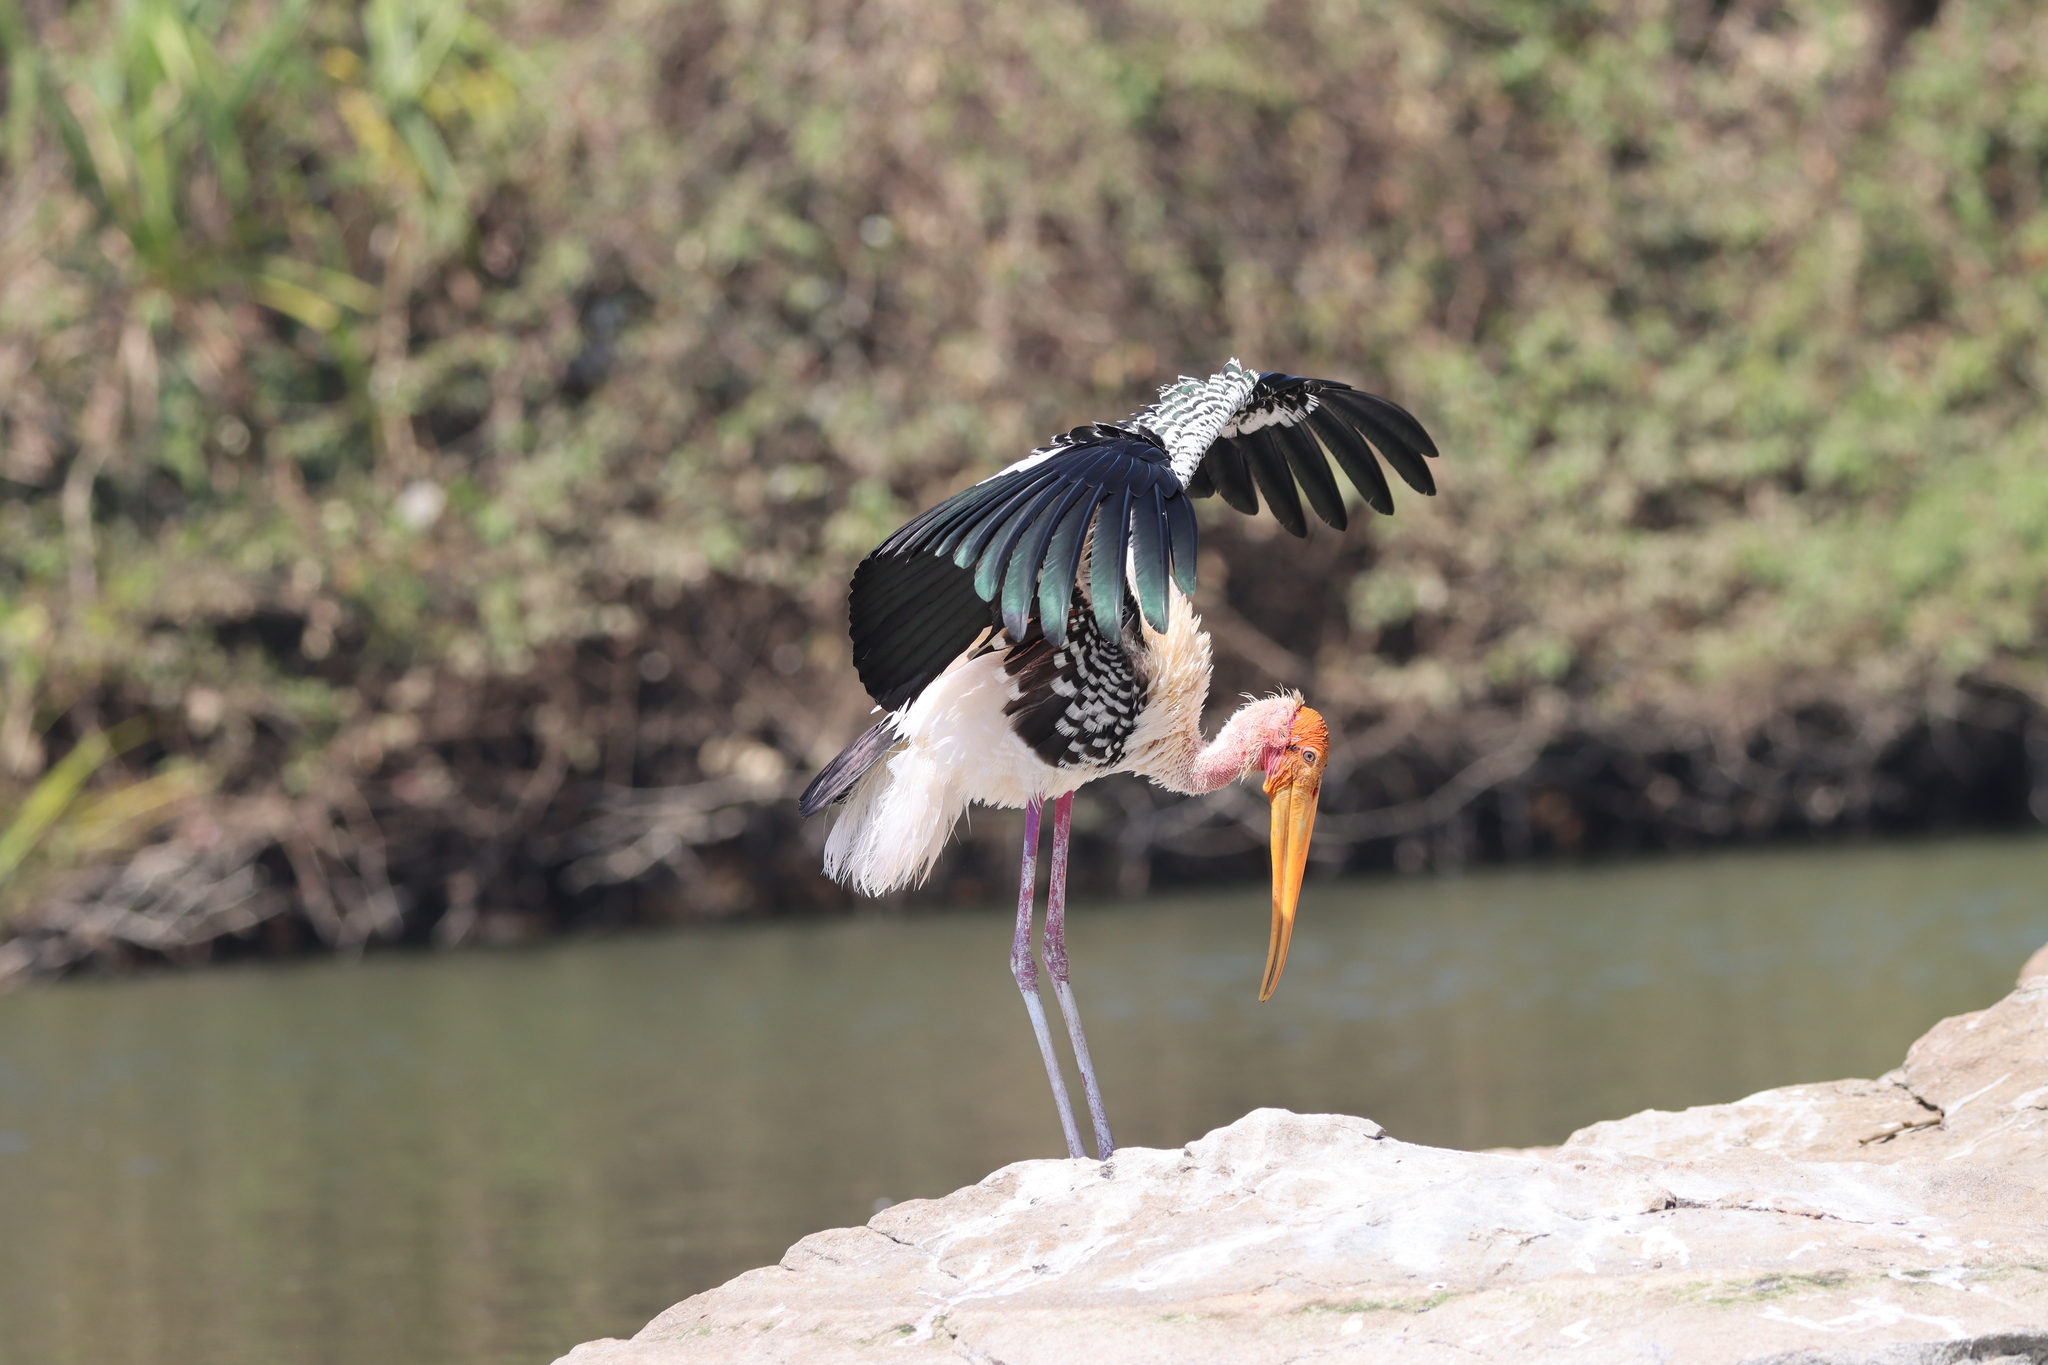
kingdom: Animalia
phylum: Chordata
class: Aves
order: Ciconiiformes
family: Ciconiidae
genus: Mycteria
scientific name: Mycteria leucocephala
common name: Painted stork
